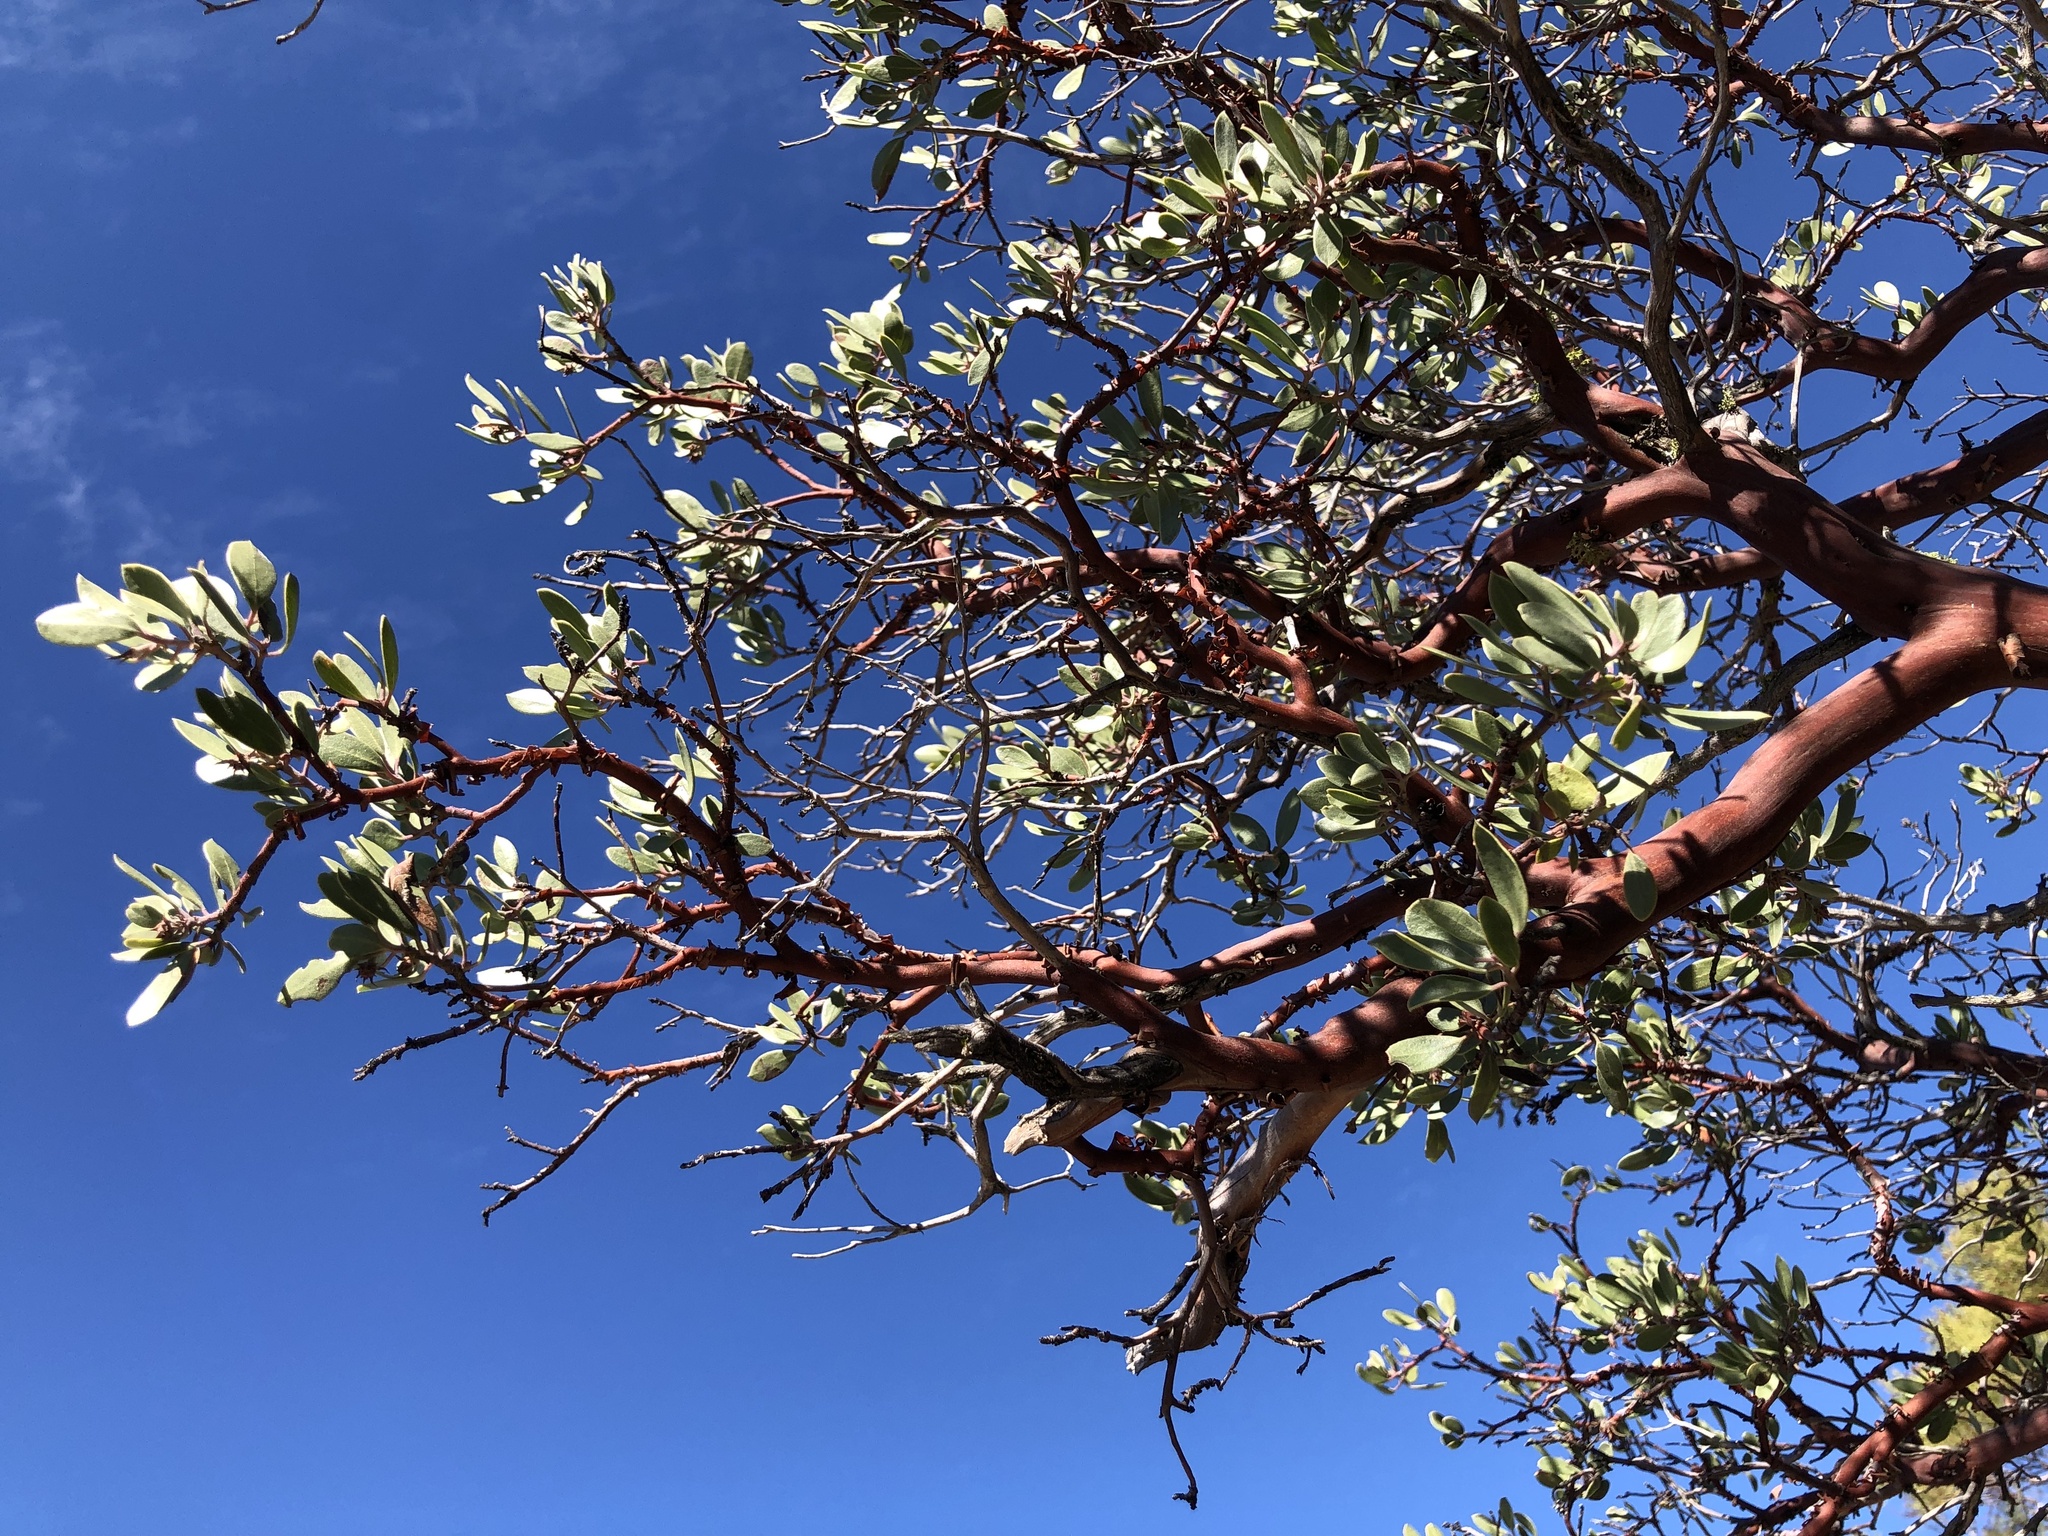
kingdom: Plantae
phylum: Tracheophyta
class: Magnoliopsida
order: Ericales
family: Ericaceae
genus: Arctostaphylos
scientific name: Arctostaphylos pungens
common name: Mexican manzanita
